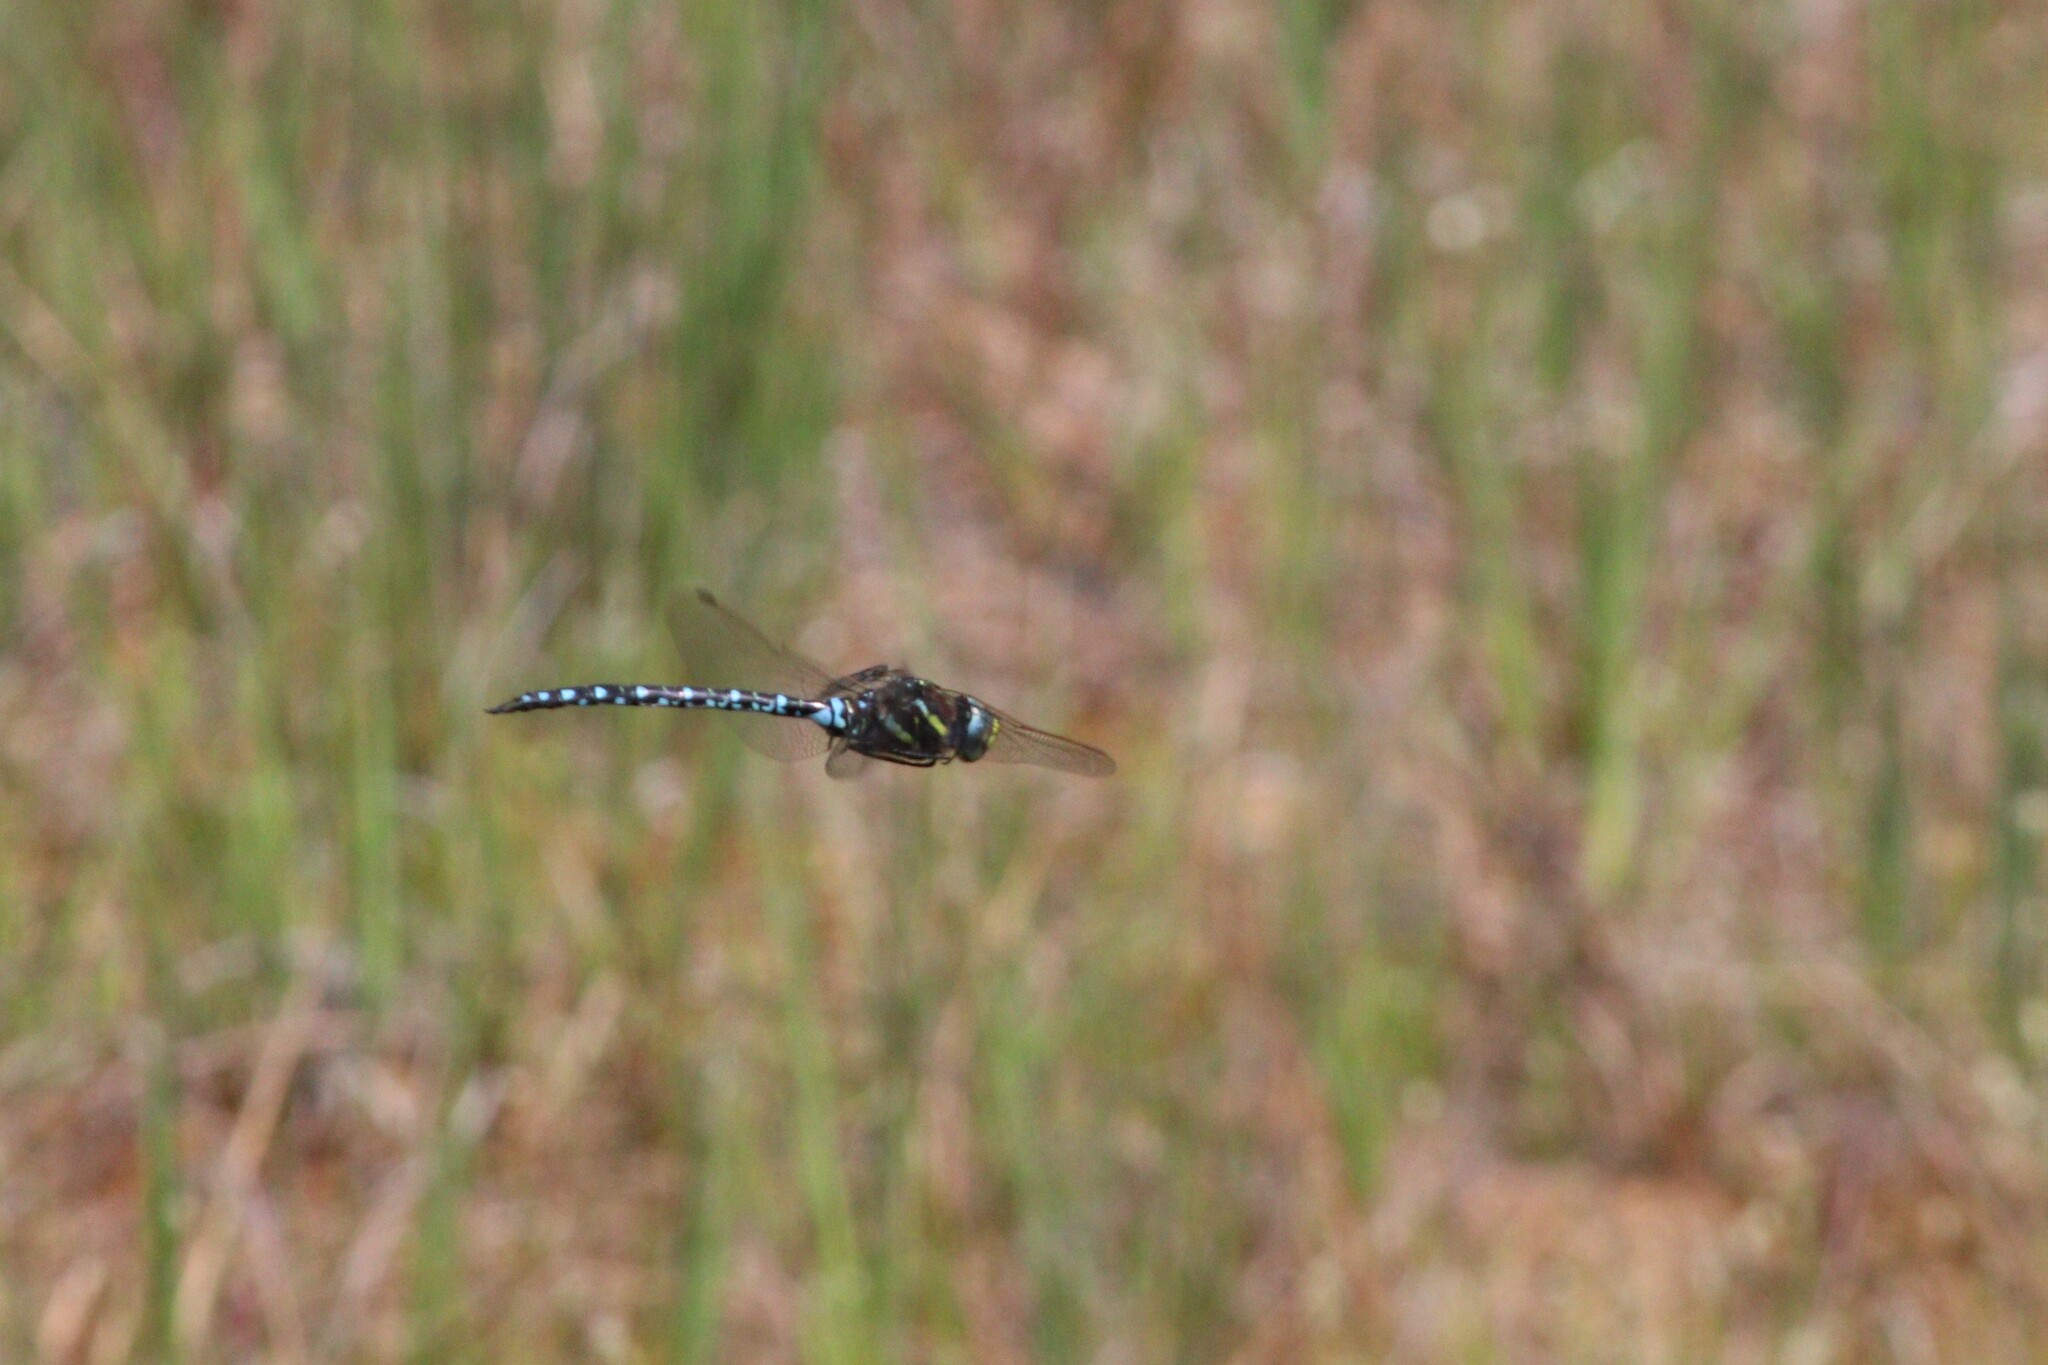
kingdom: Animalia
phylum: Arthropoda
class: Insecta
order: Odonata
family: Aeshnidae
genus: Aeshna
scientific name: Aeshna juncea
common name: Moorland hawker
